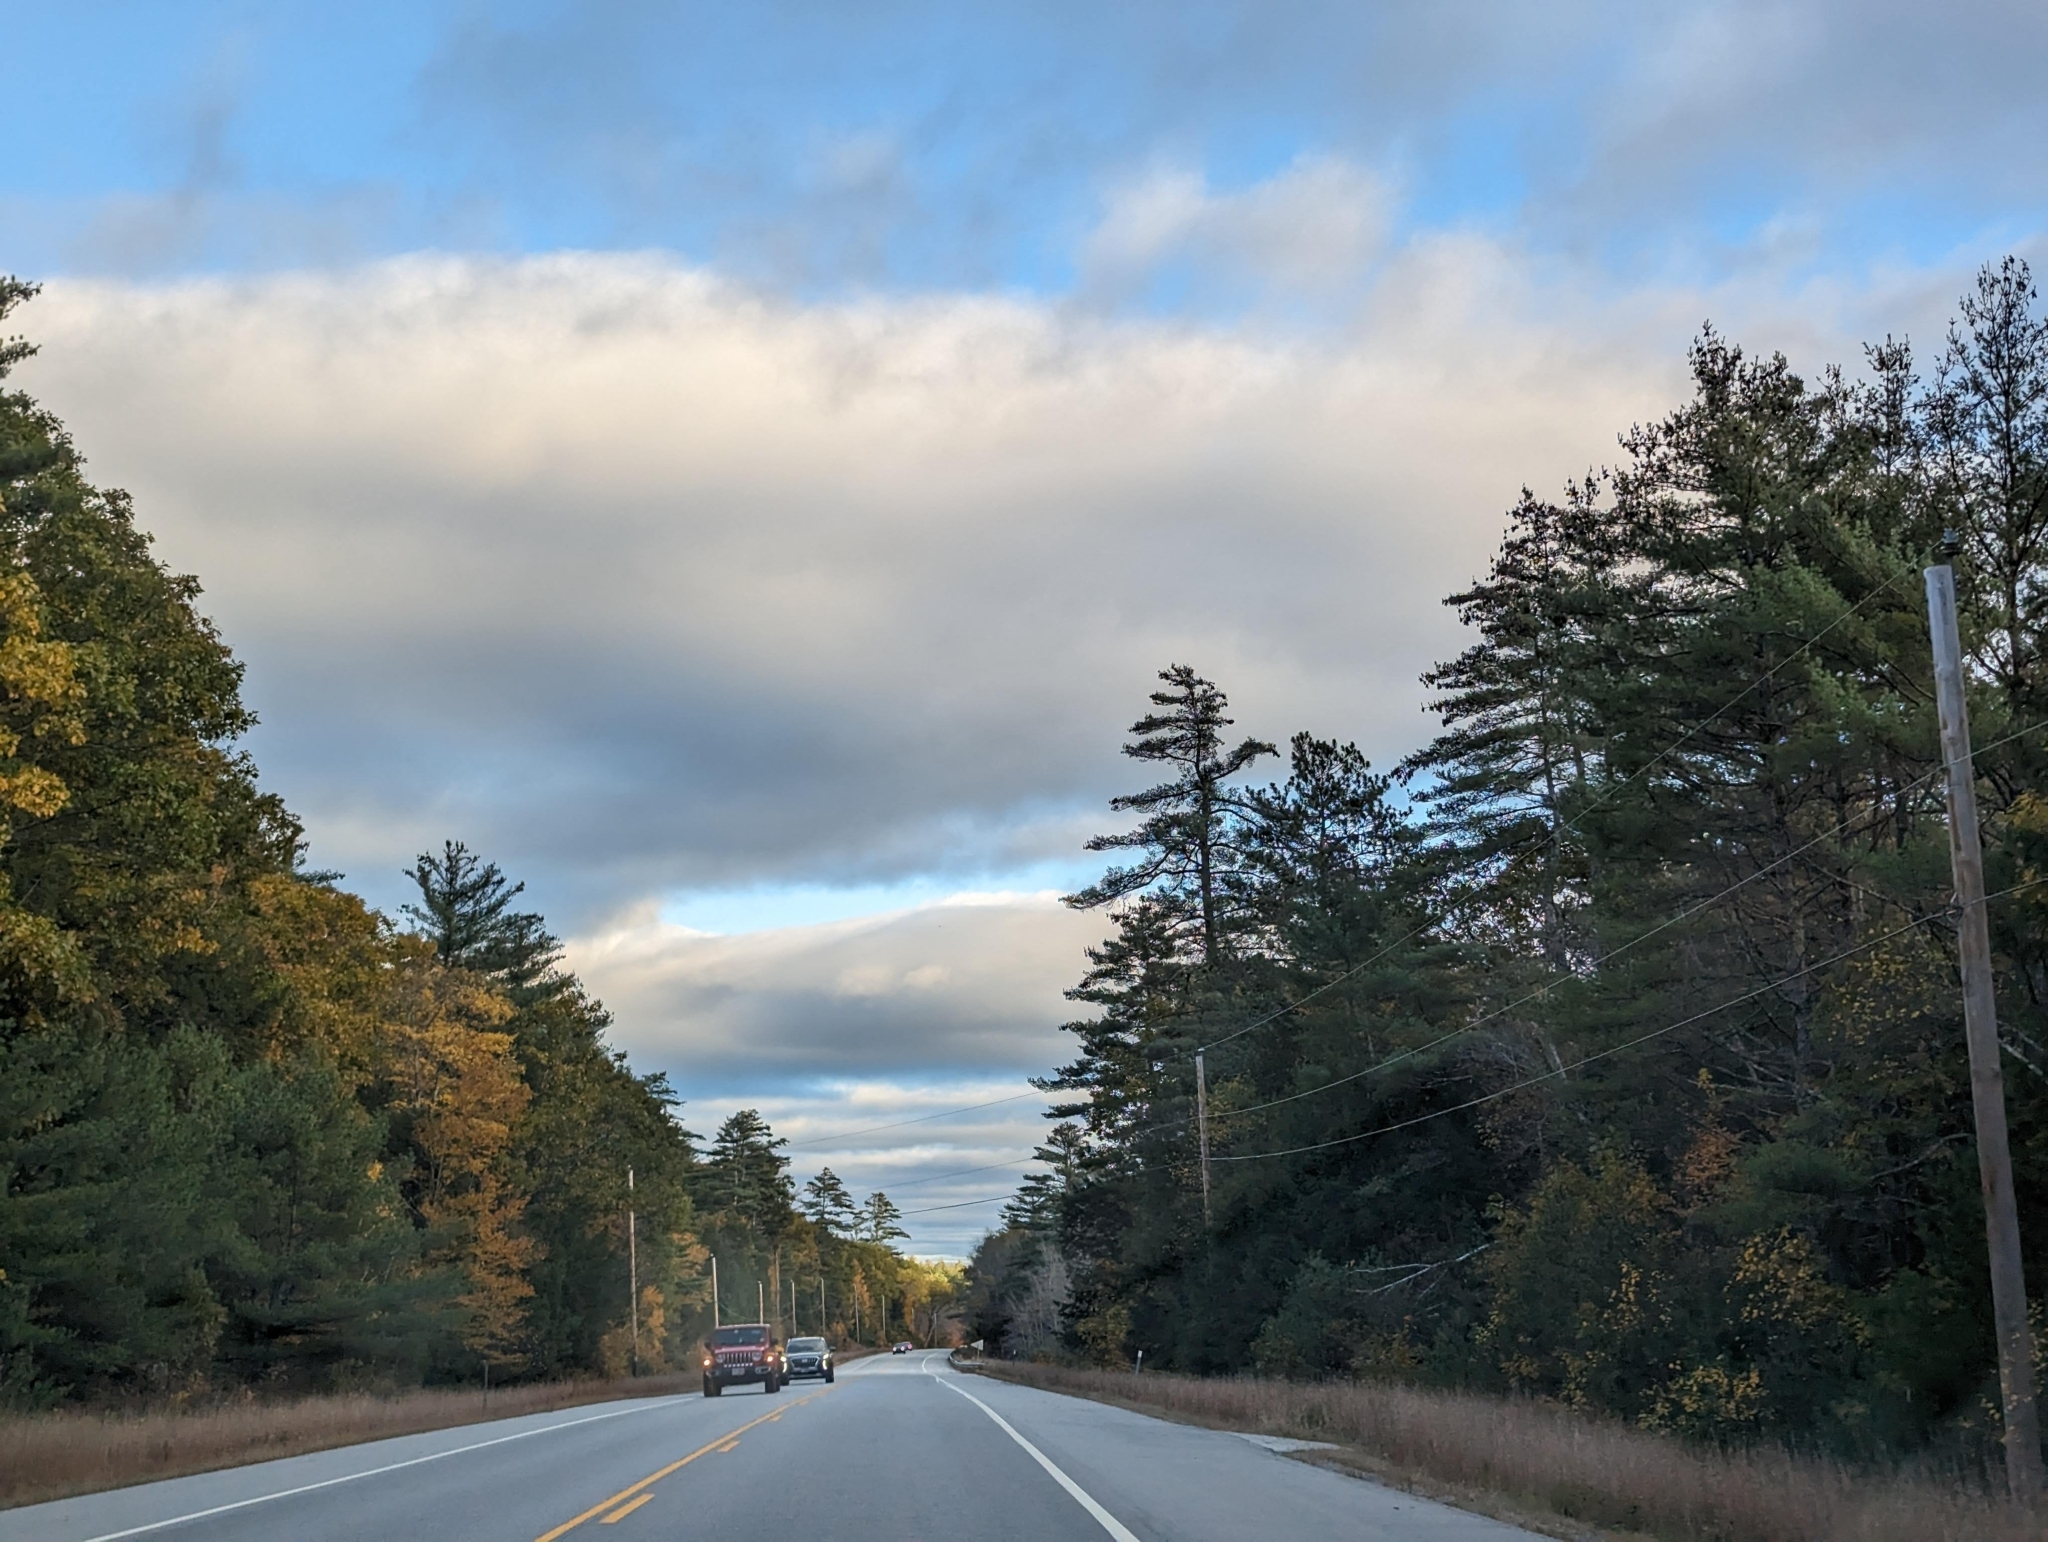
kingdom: Plantae
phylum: Tracheophyta
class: Pinopsida
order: Pinales
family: Pinaceae
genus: Pinus
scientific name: Pinus strobus
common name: Weymouth pine
